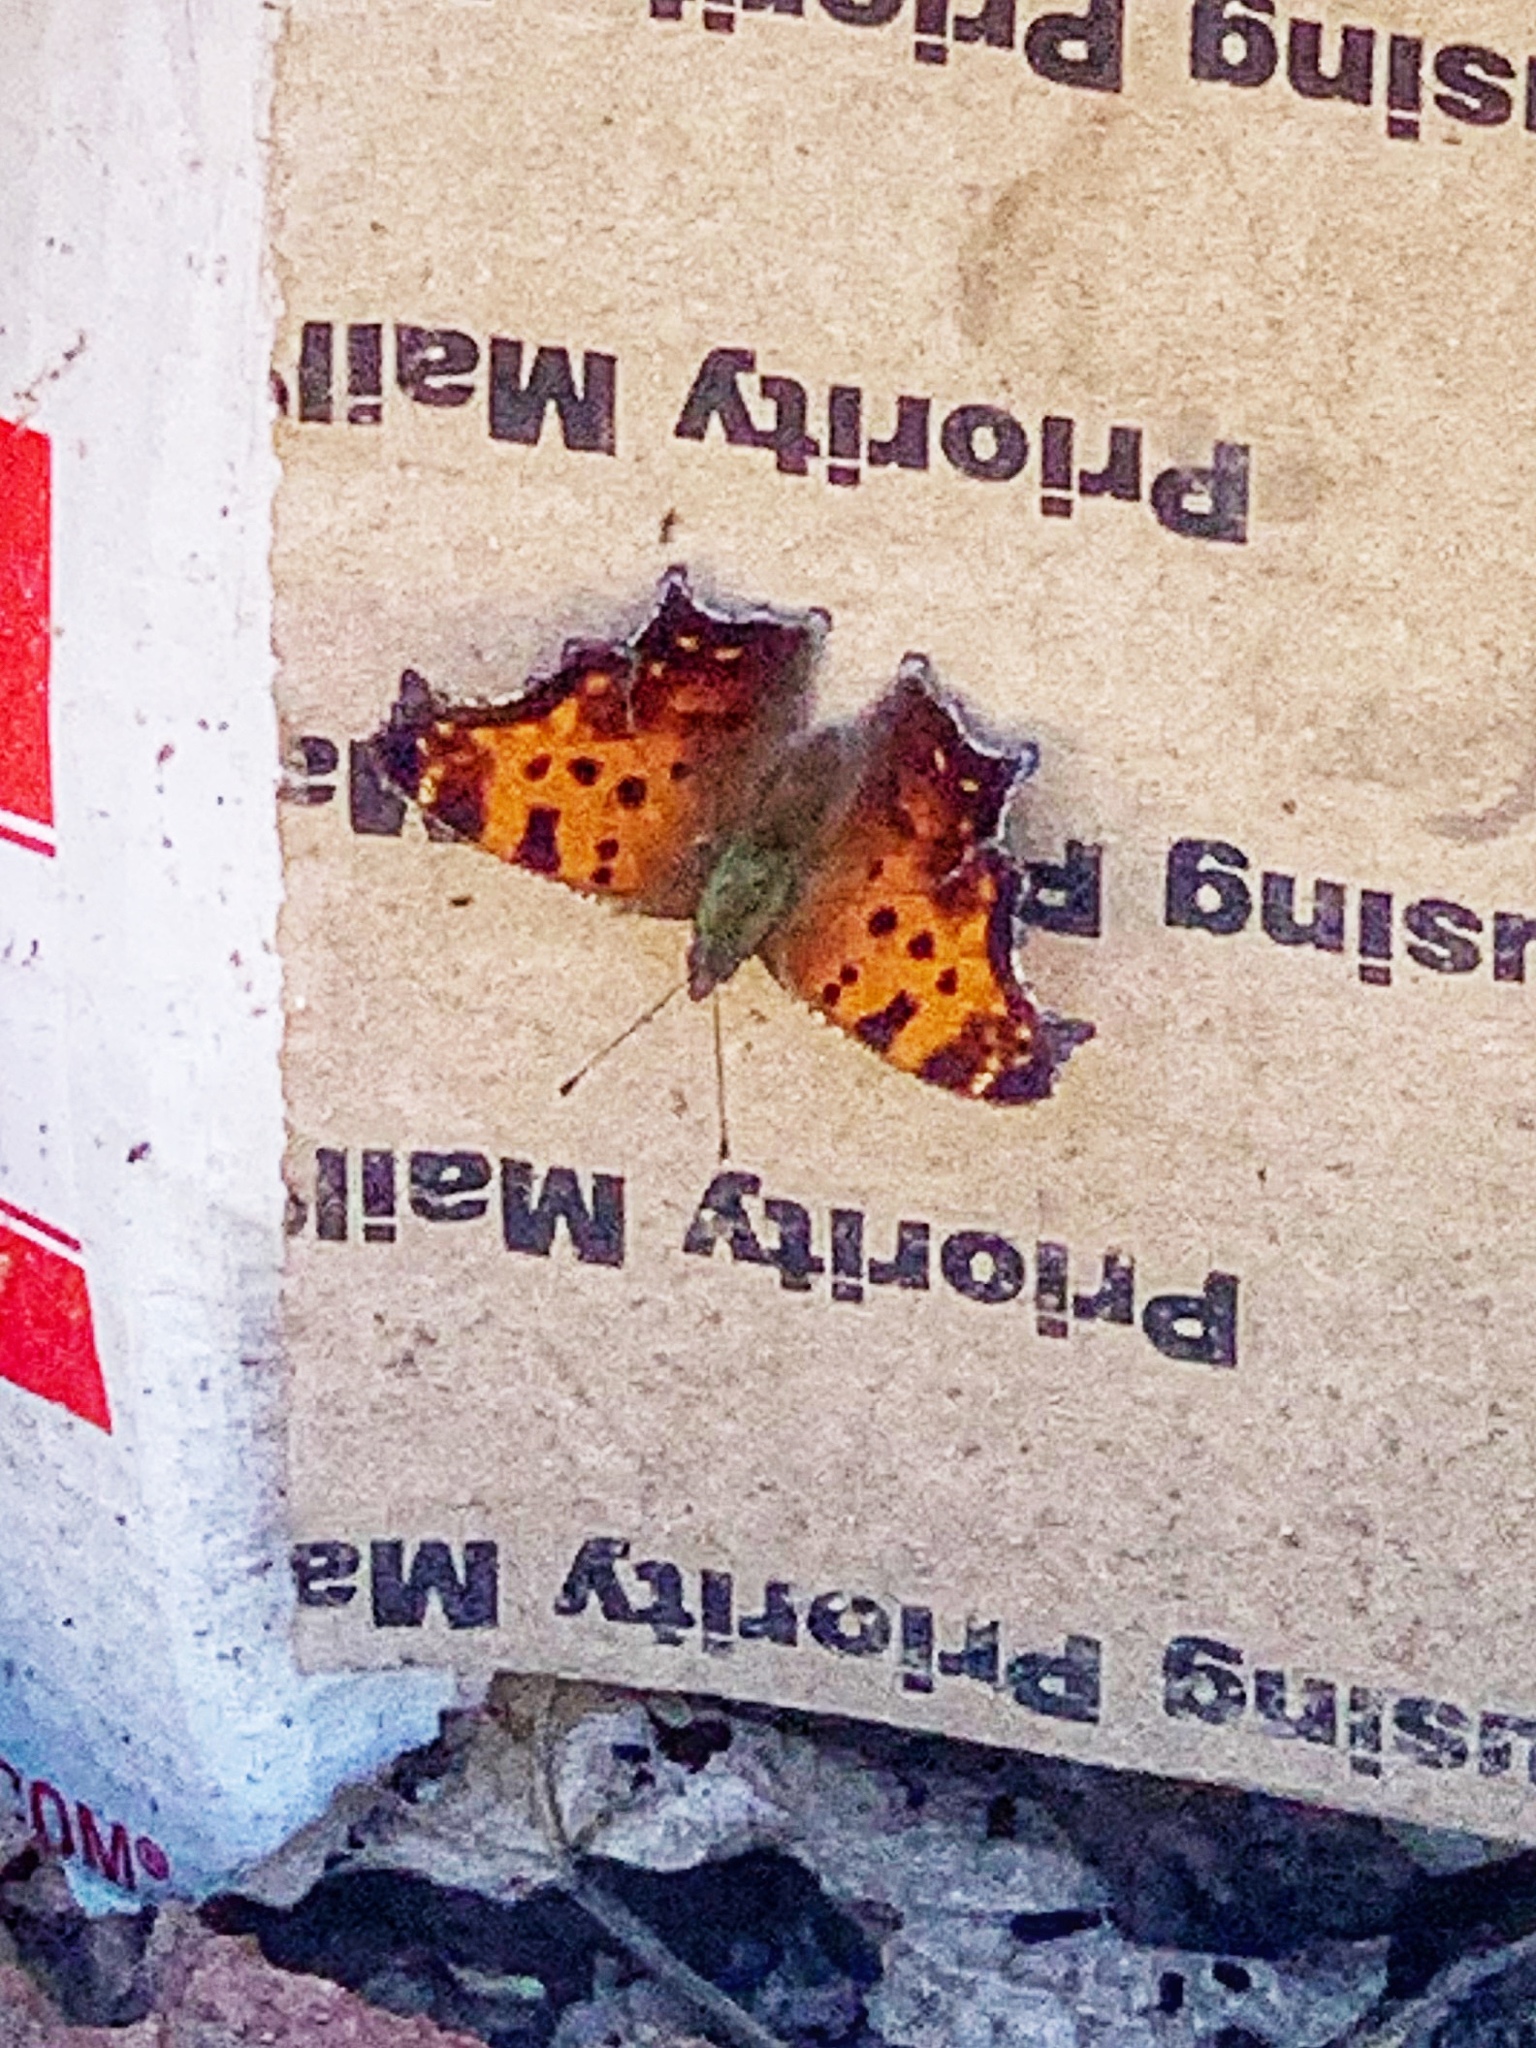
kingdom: Animalia
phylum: Arthropoda
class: Insecta
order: Lepidoptera
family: Nymphalidae
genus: Polygonia
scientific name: Polygonia comma
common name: Eastern comma
